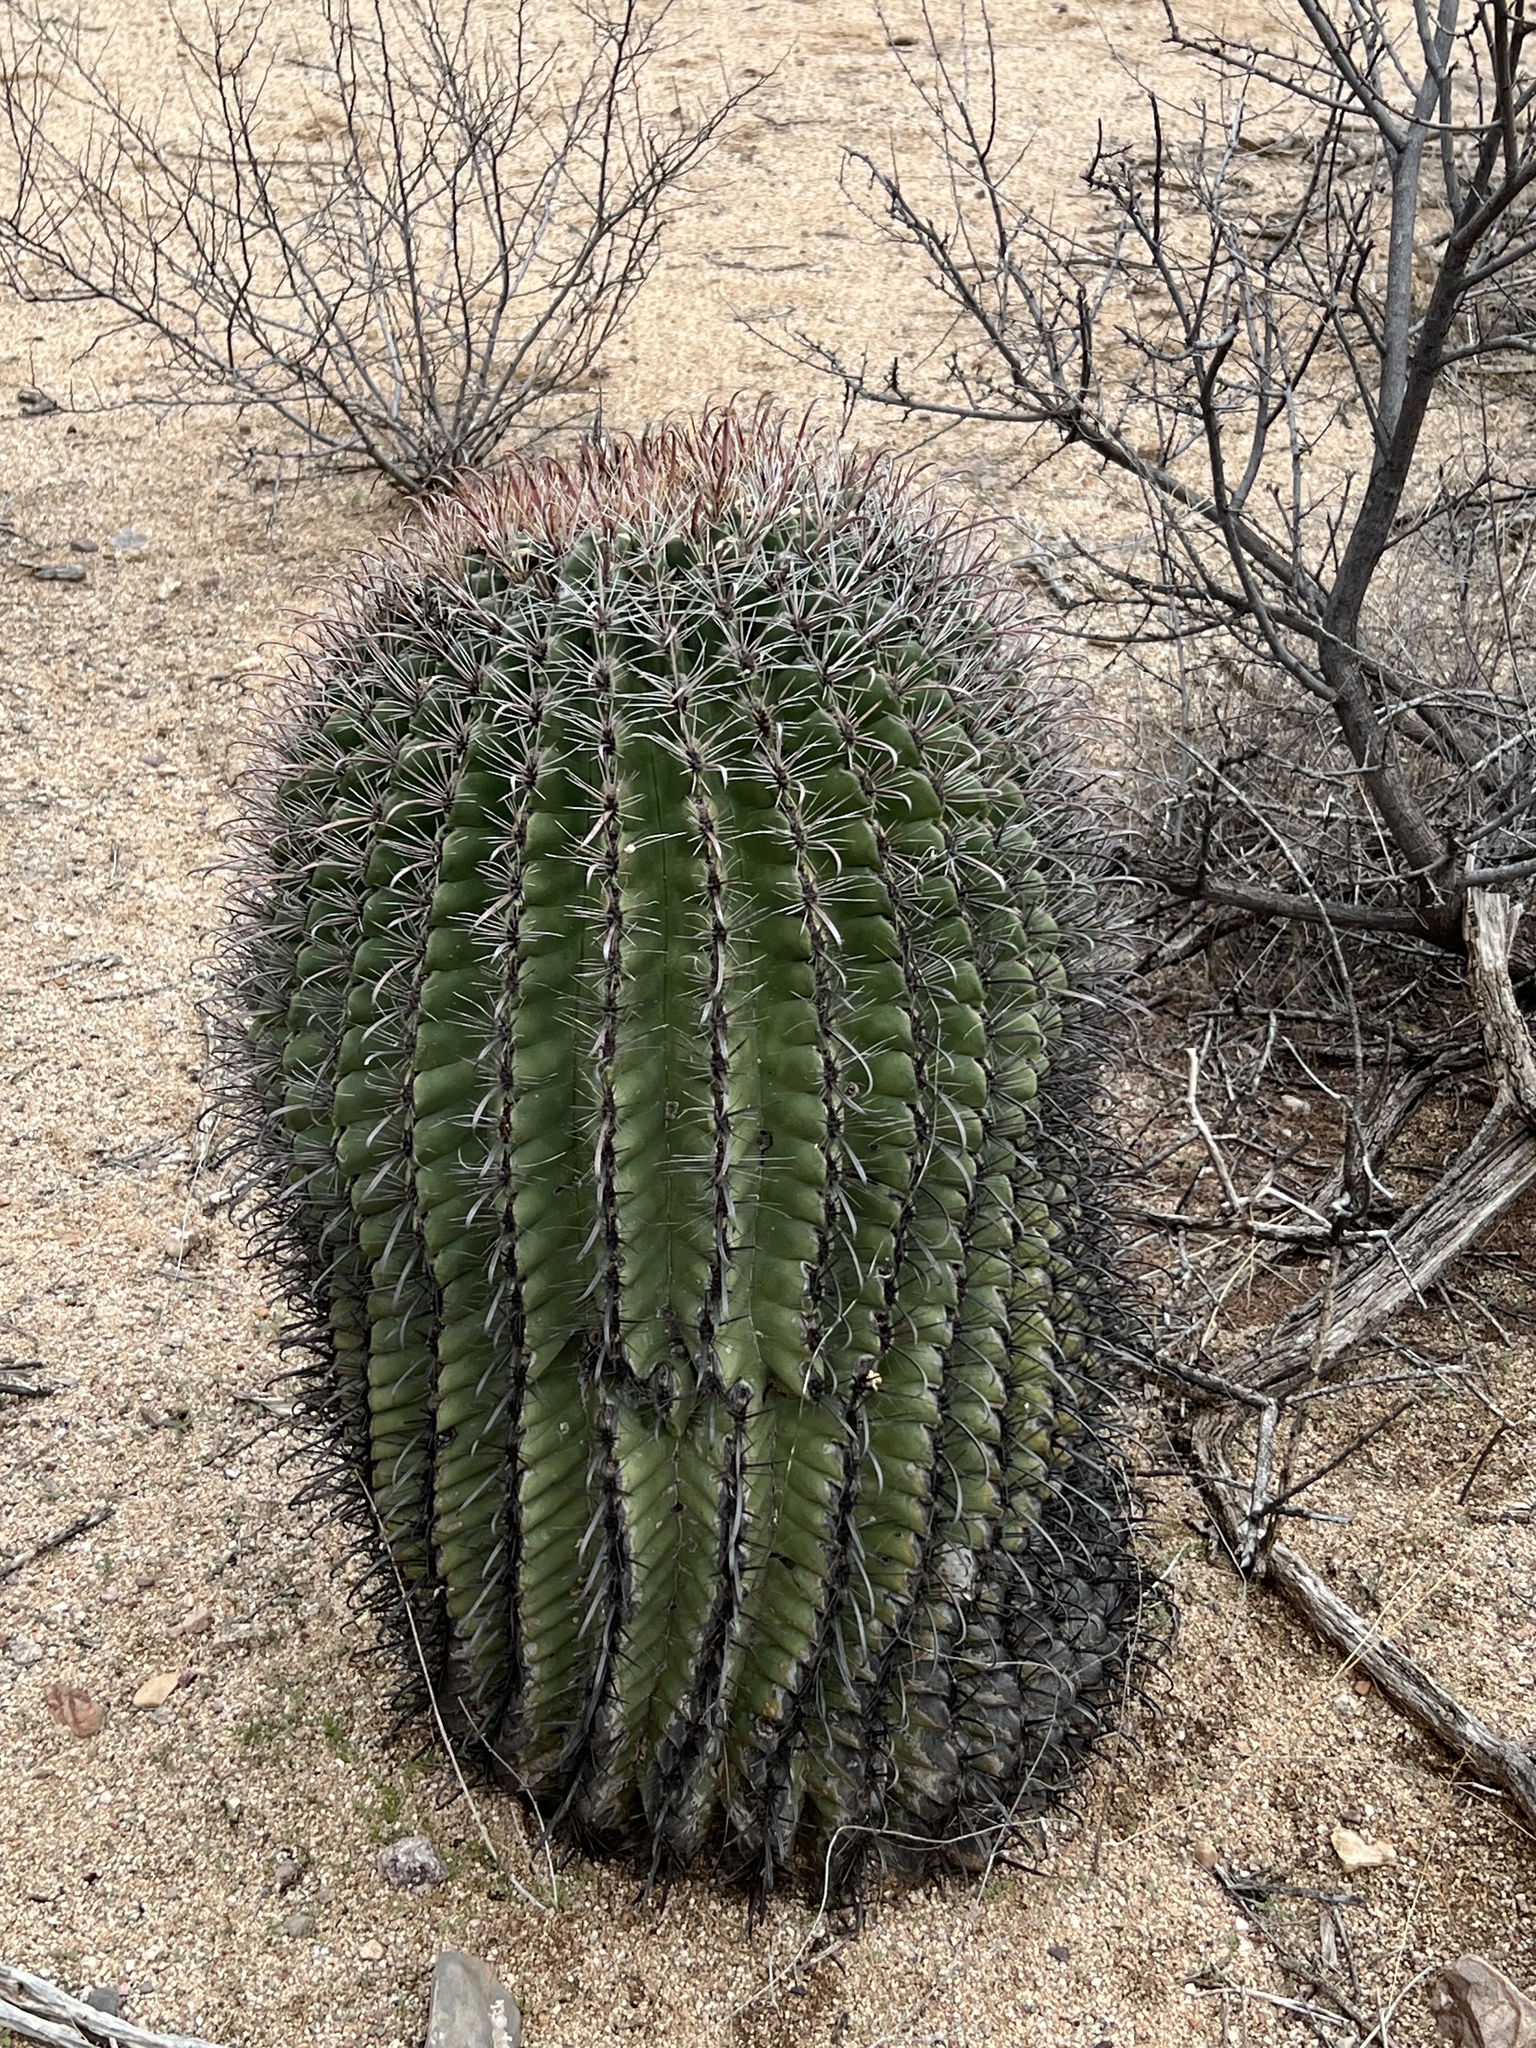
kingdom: Plantae
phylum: Tracheophyta
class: Magnoliopsida
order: Caryophyllales
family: Cactaceae
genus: Ferocactus
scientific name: Ferocactus wislizeni
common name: Candy barrel cactus
